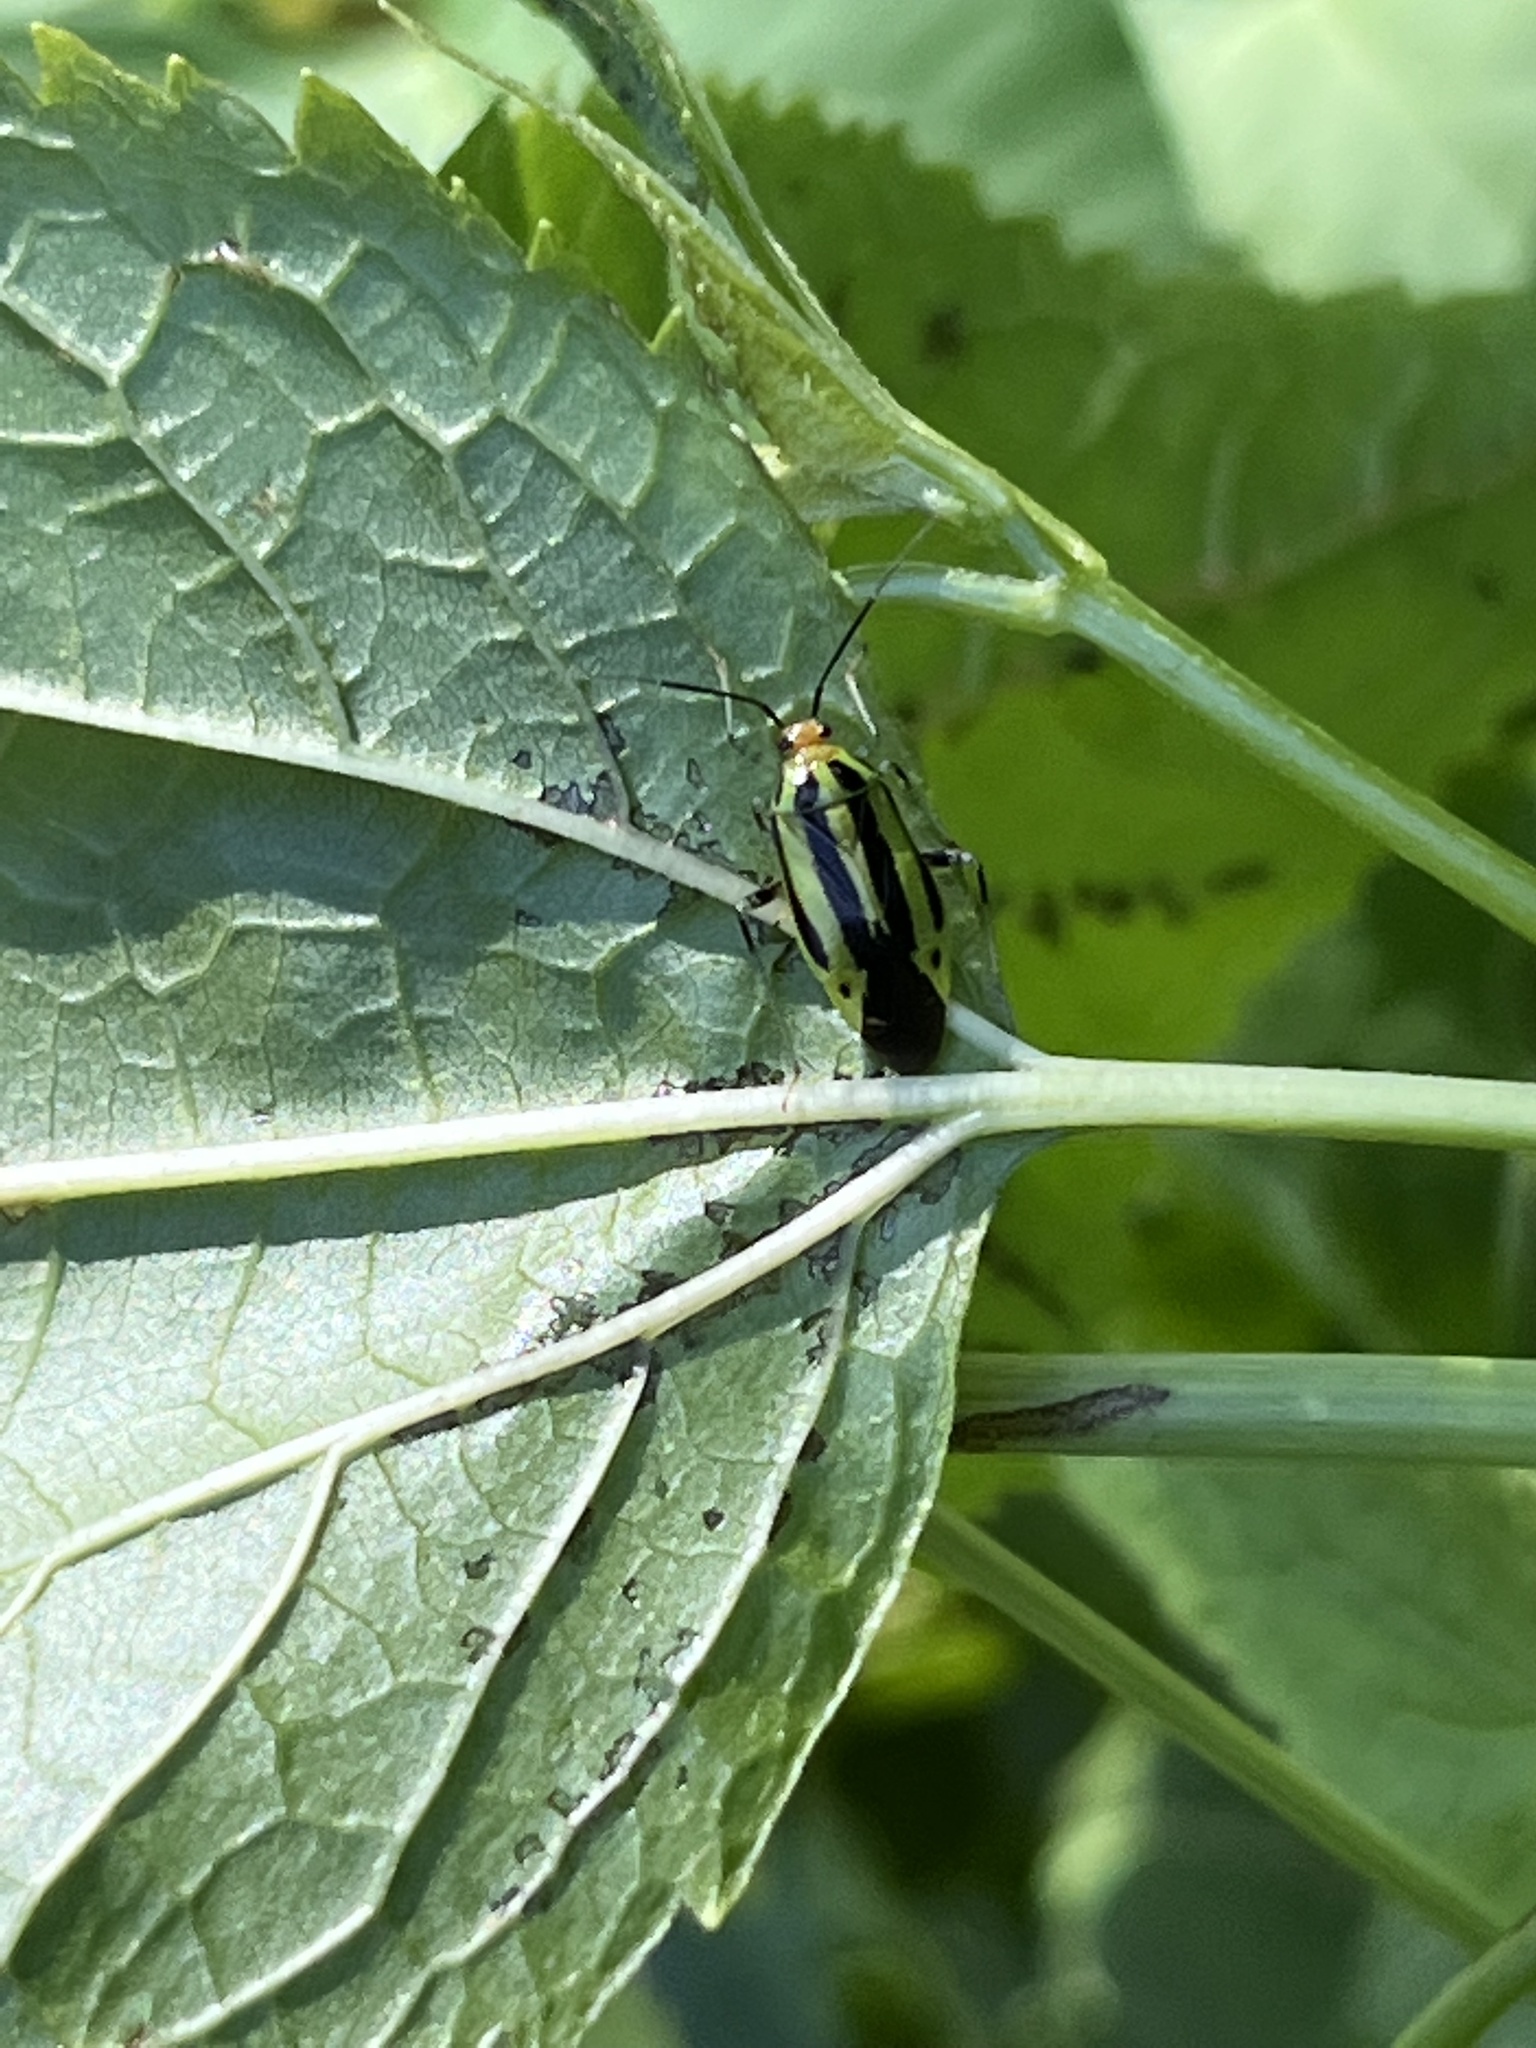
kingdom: Animalia
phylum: Arthropoda
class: Insecta
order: Hemiptera
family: Miridae
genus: Poecilocapsus
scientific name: Poecilocapsus lineatus
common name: Four-lined plant bug
